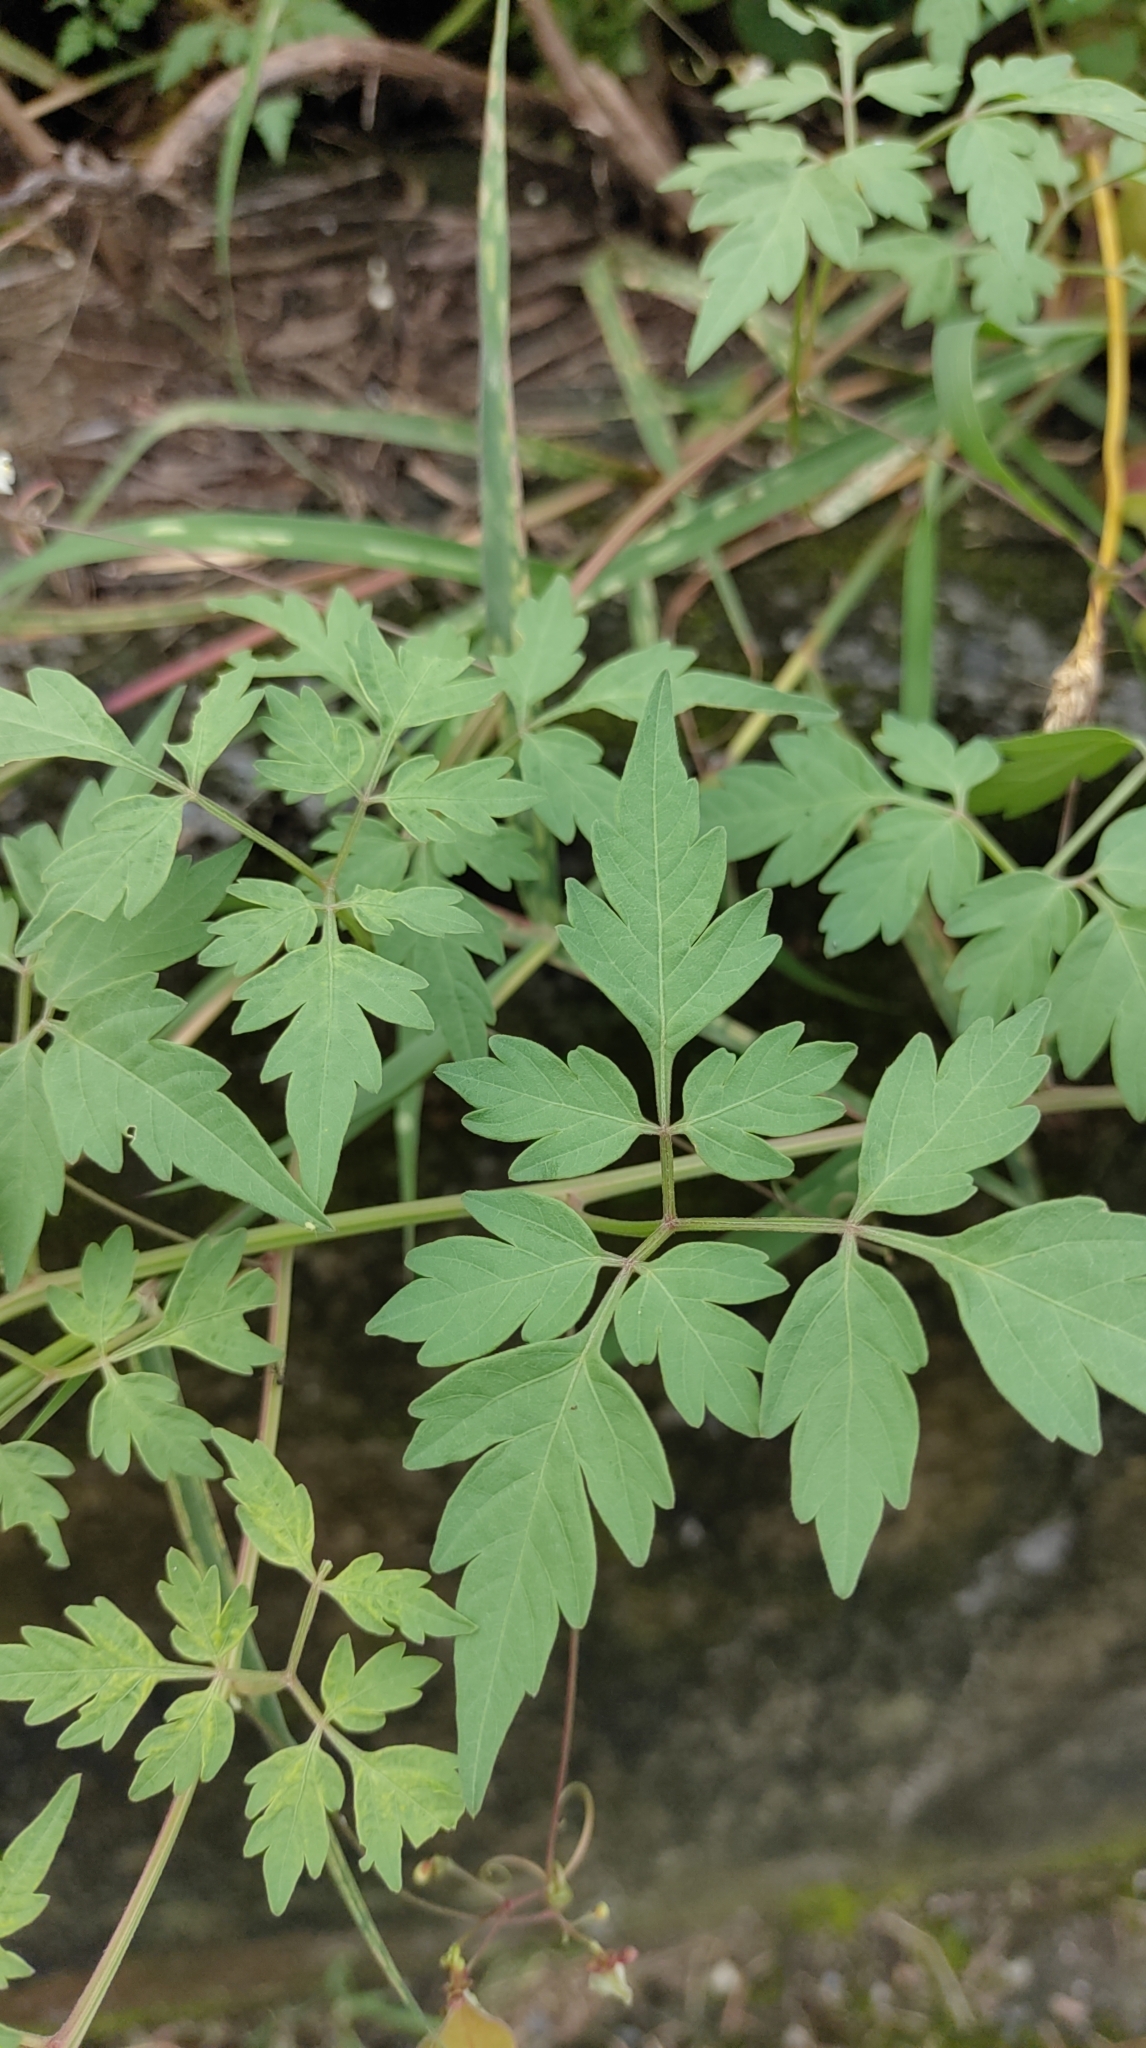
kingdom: Plantae
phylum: Tracheophyta
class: Magnoliopsida
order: Sapindales
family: Sapindaceae
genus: Cardiospermum
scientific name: Cardiospermum halicacabum
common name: Balloon vine
